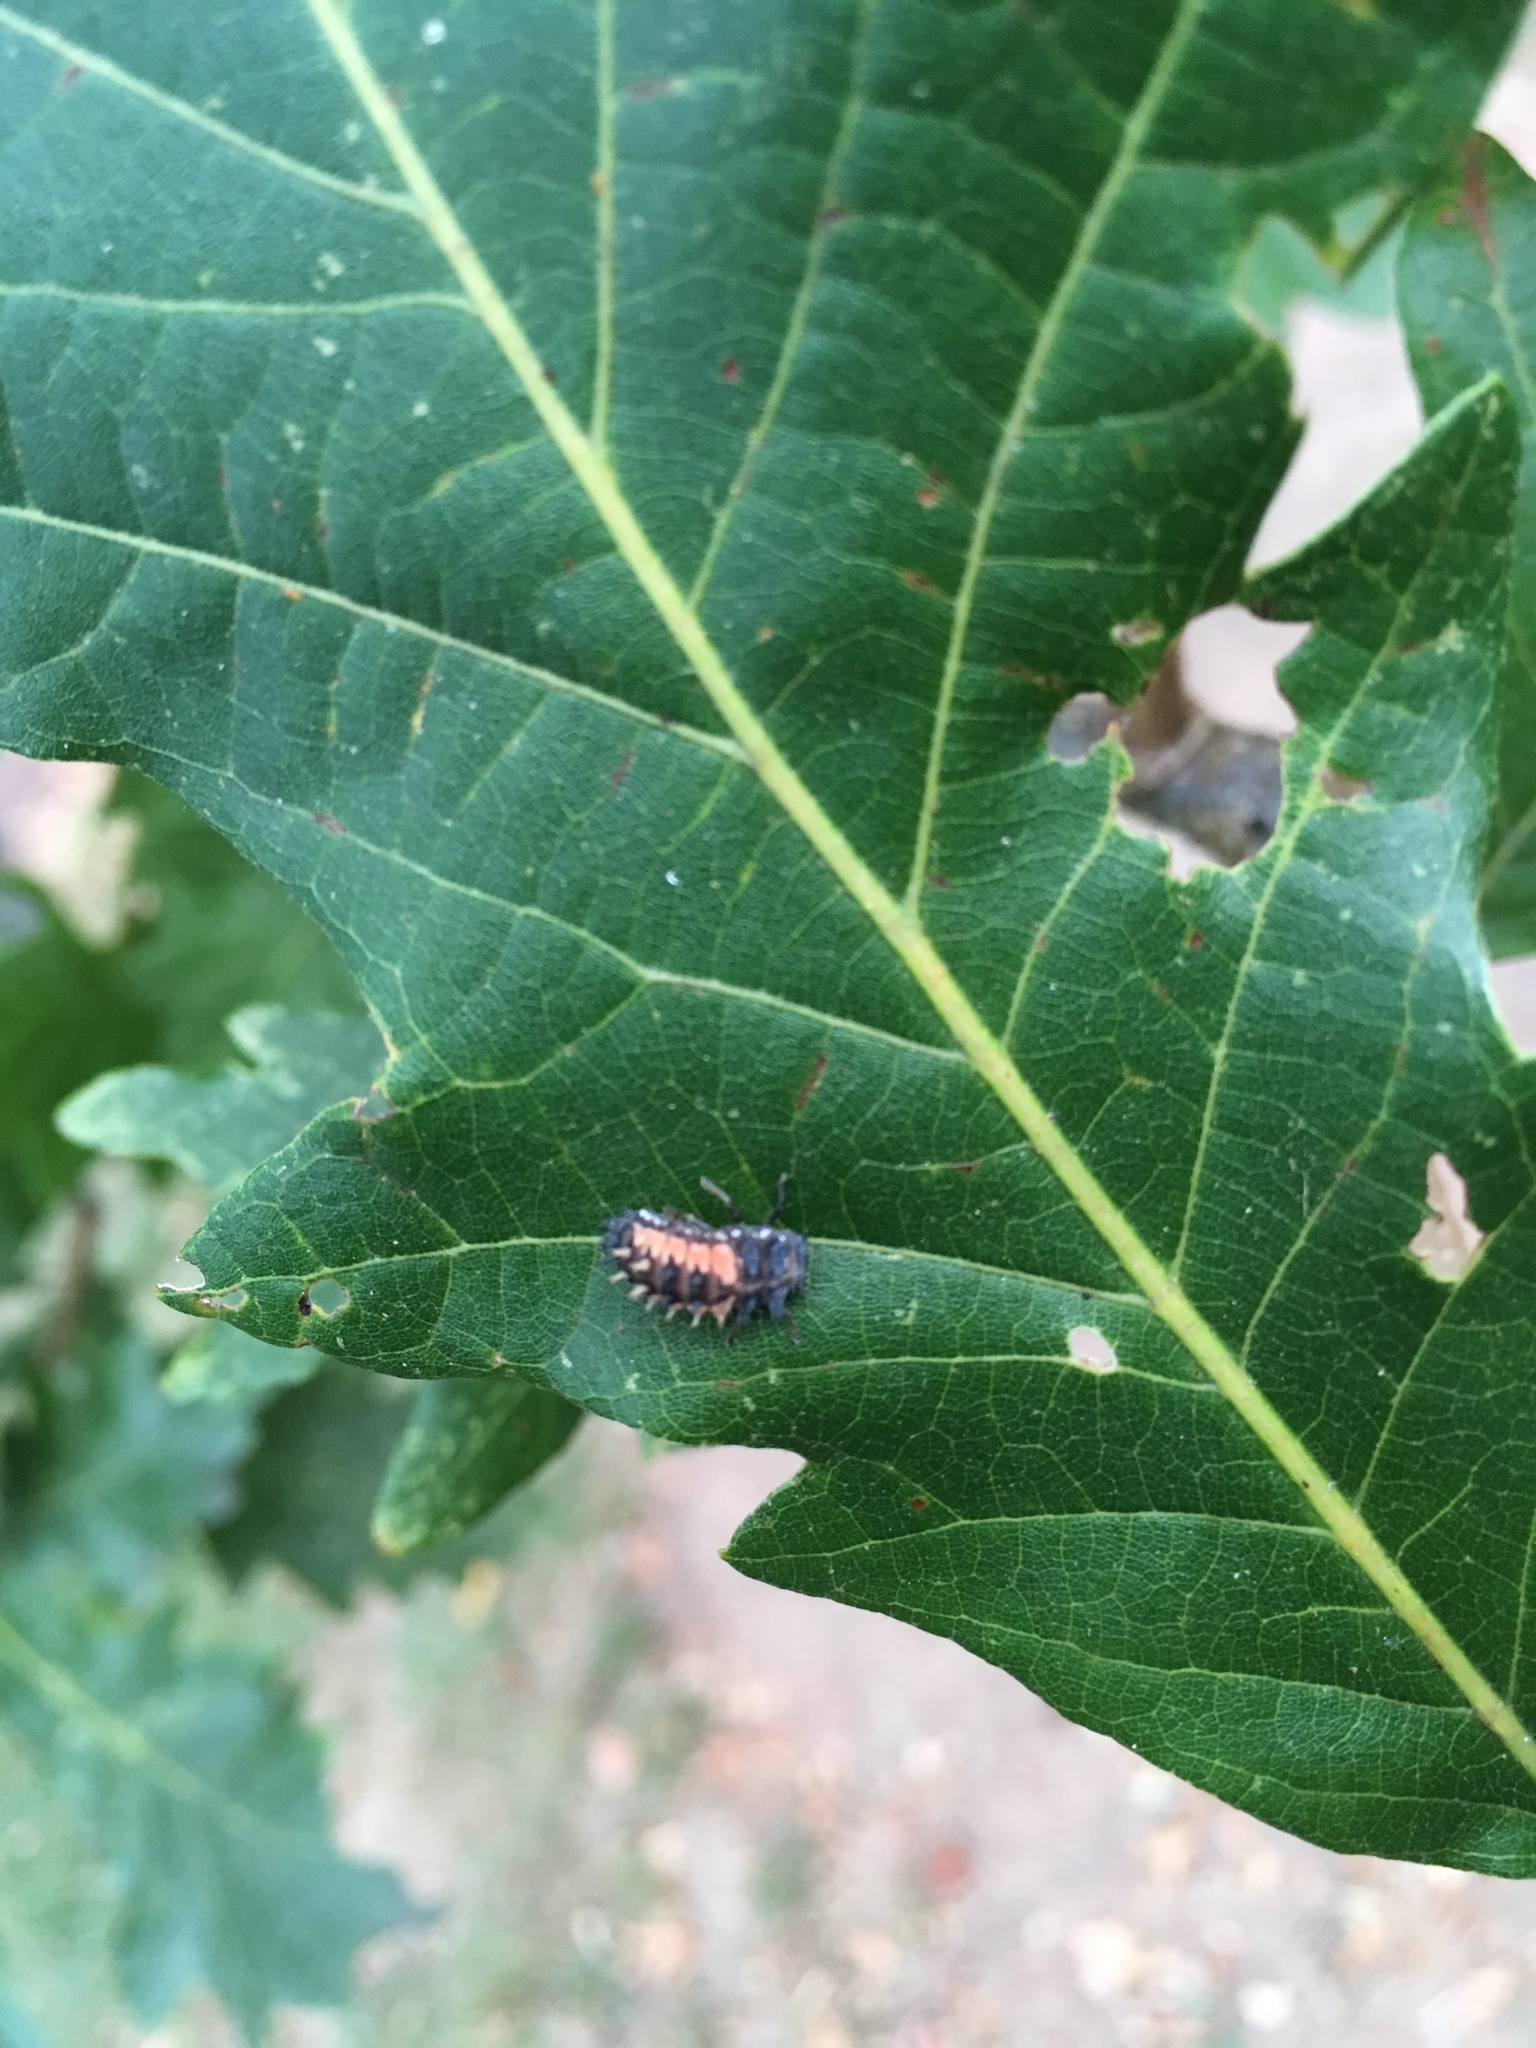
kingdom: Animalia
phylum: Arthropoda
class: Insecta
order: Coleoptera
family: Coccinellidae
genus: Harmonia
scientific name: Harmonia axyridis
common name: Harlequin ladybird
